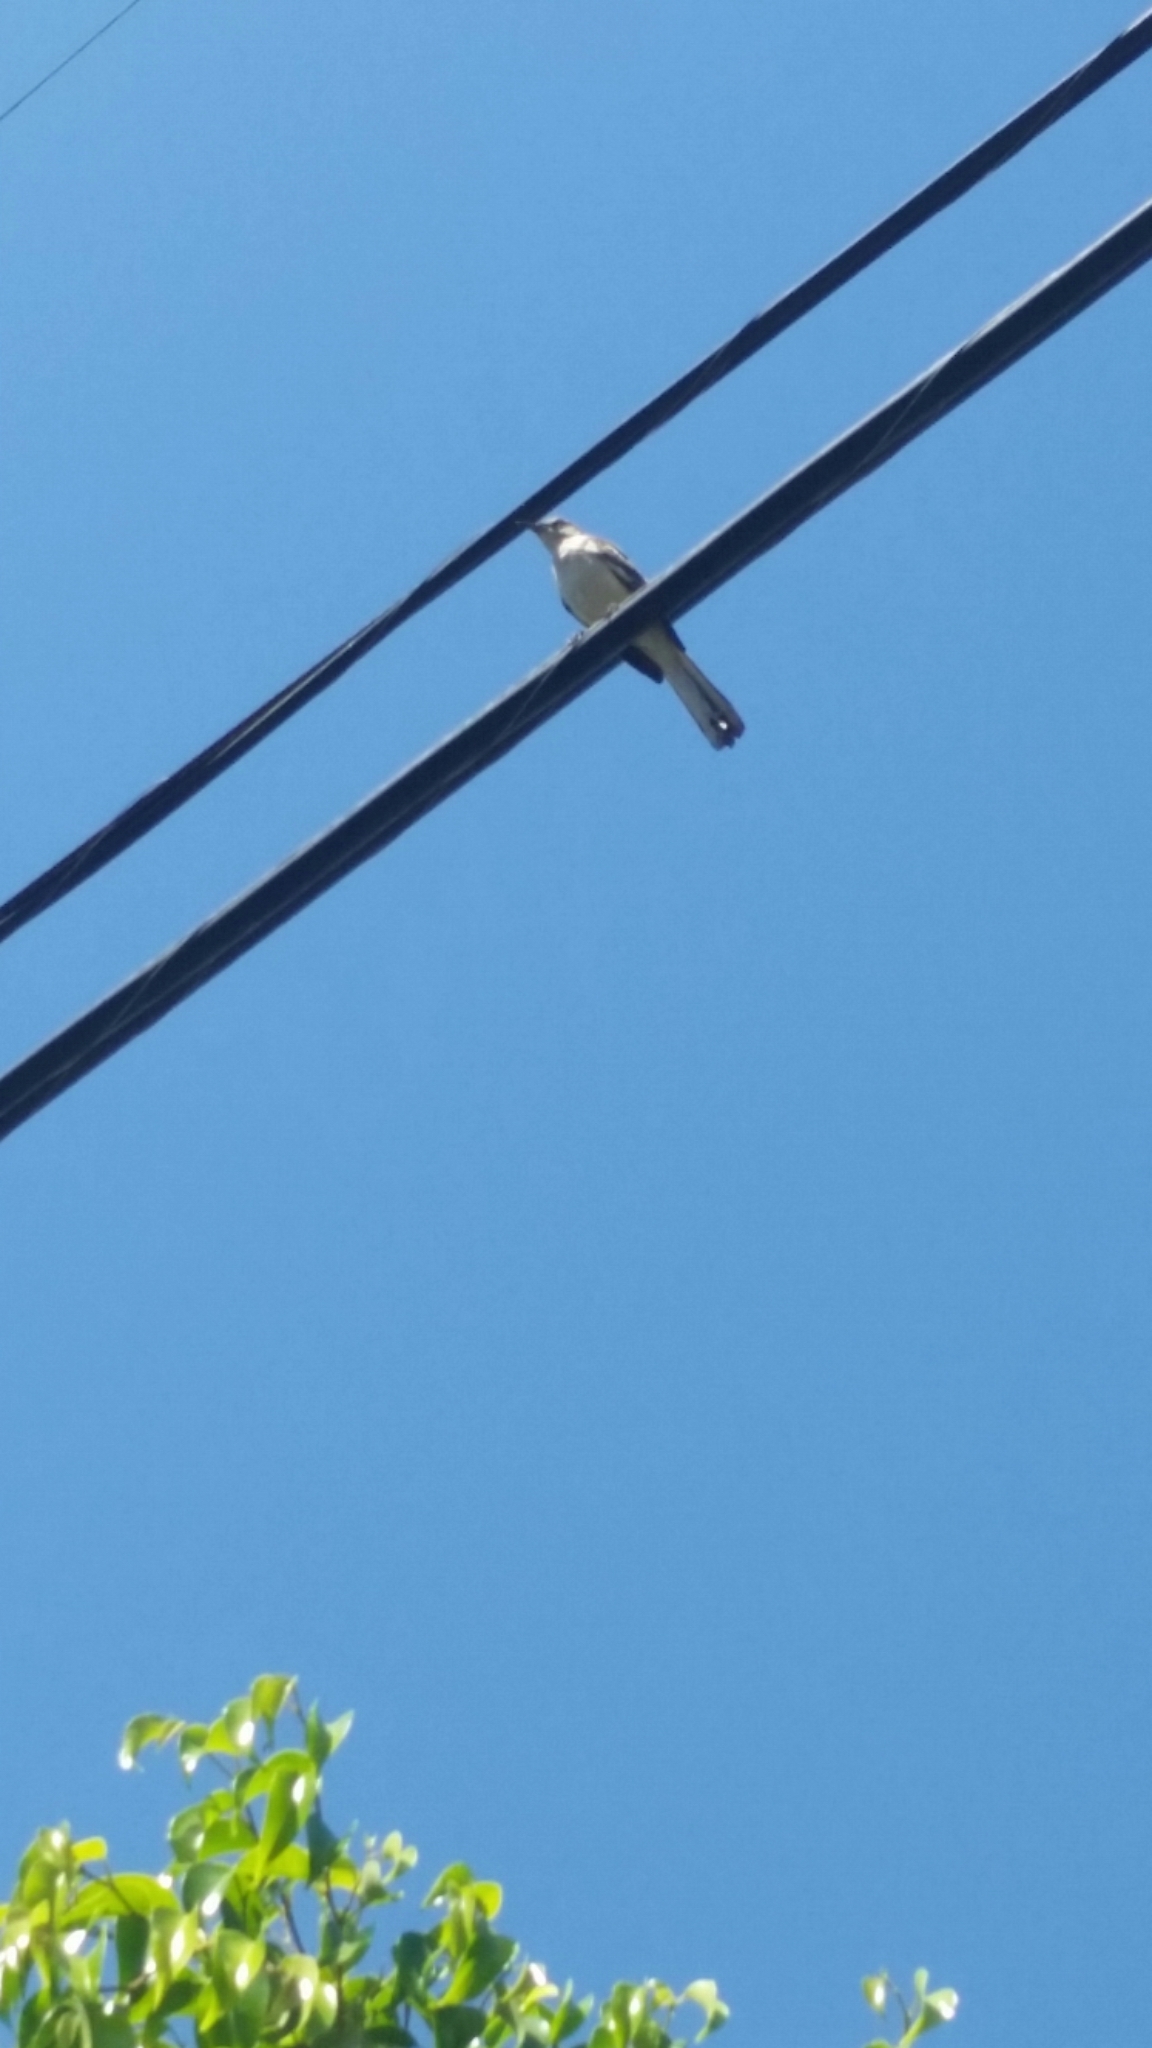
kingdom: Animalia
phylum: Chordata
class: Aves
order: Passeriformes
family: Mimidae
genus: Mimus
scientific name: Mimus polyglottos
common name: Northern mockingbird
